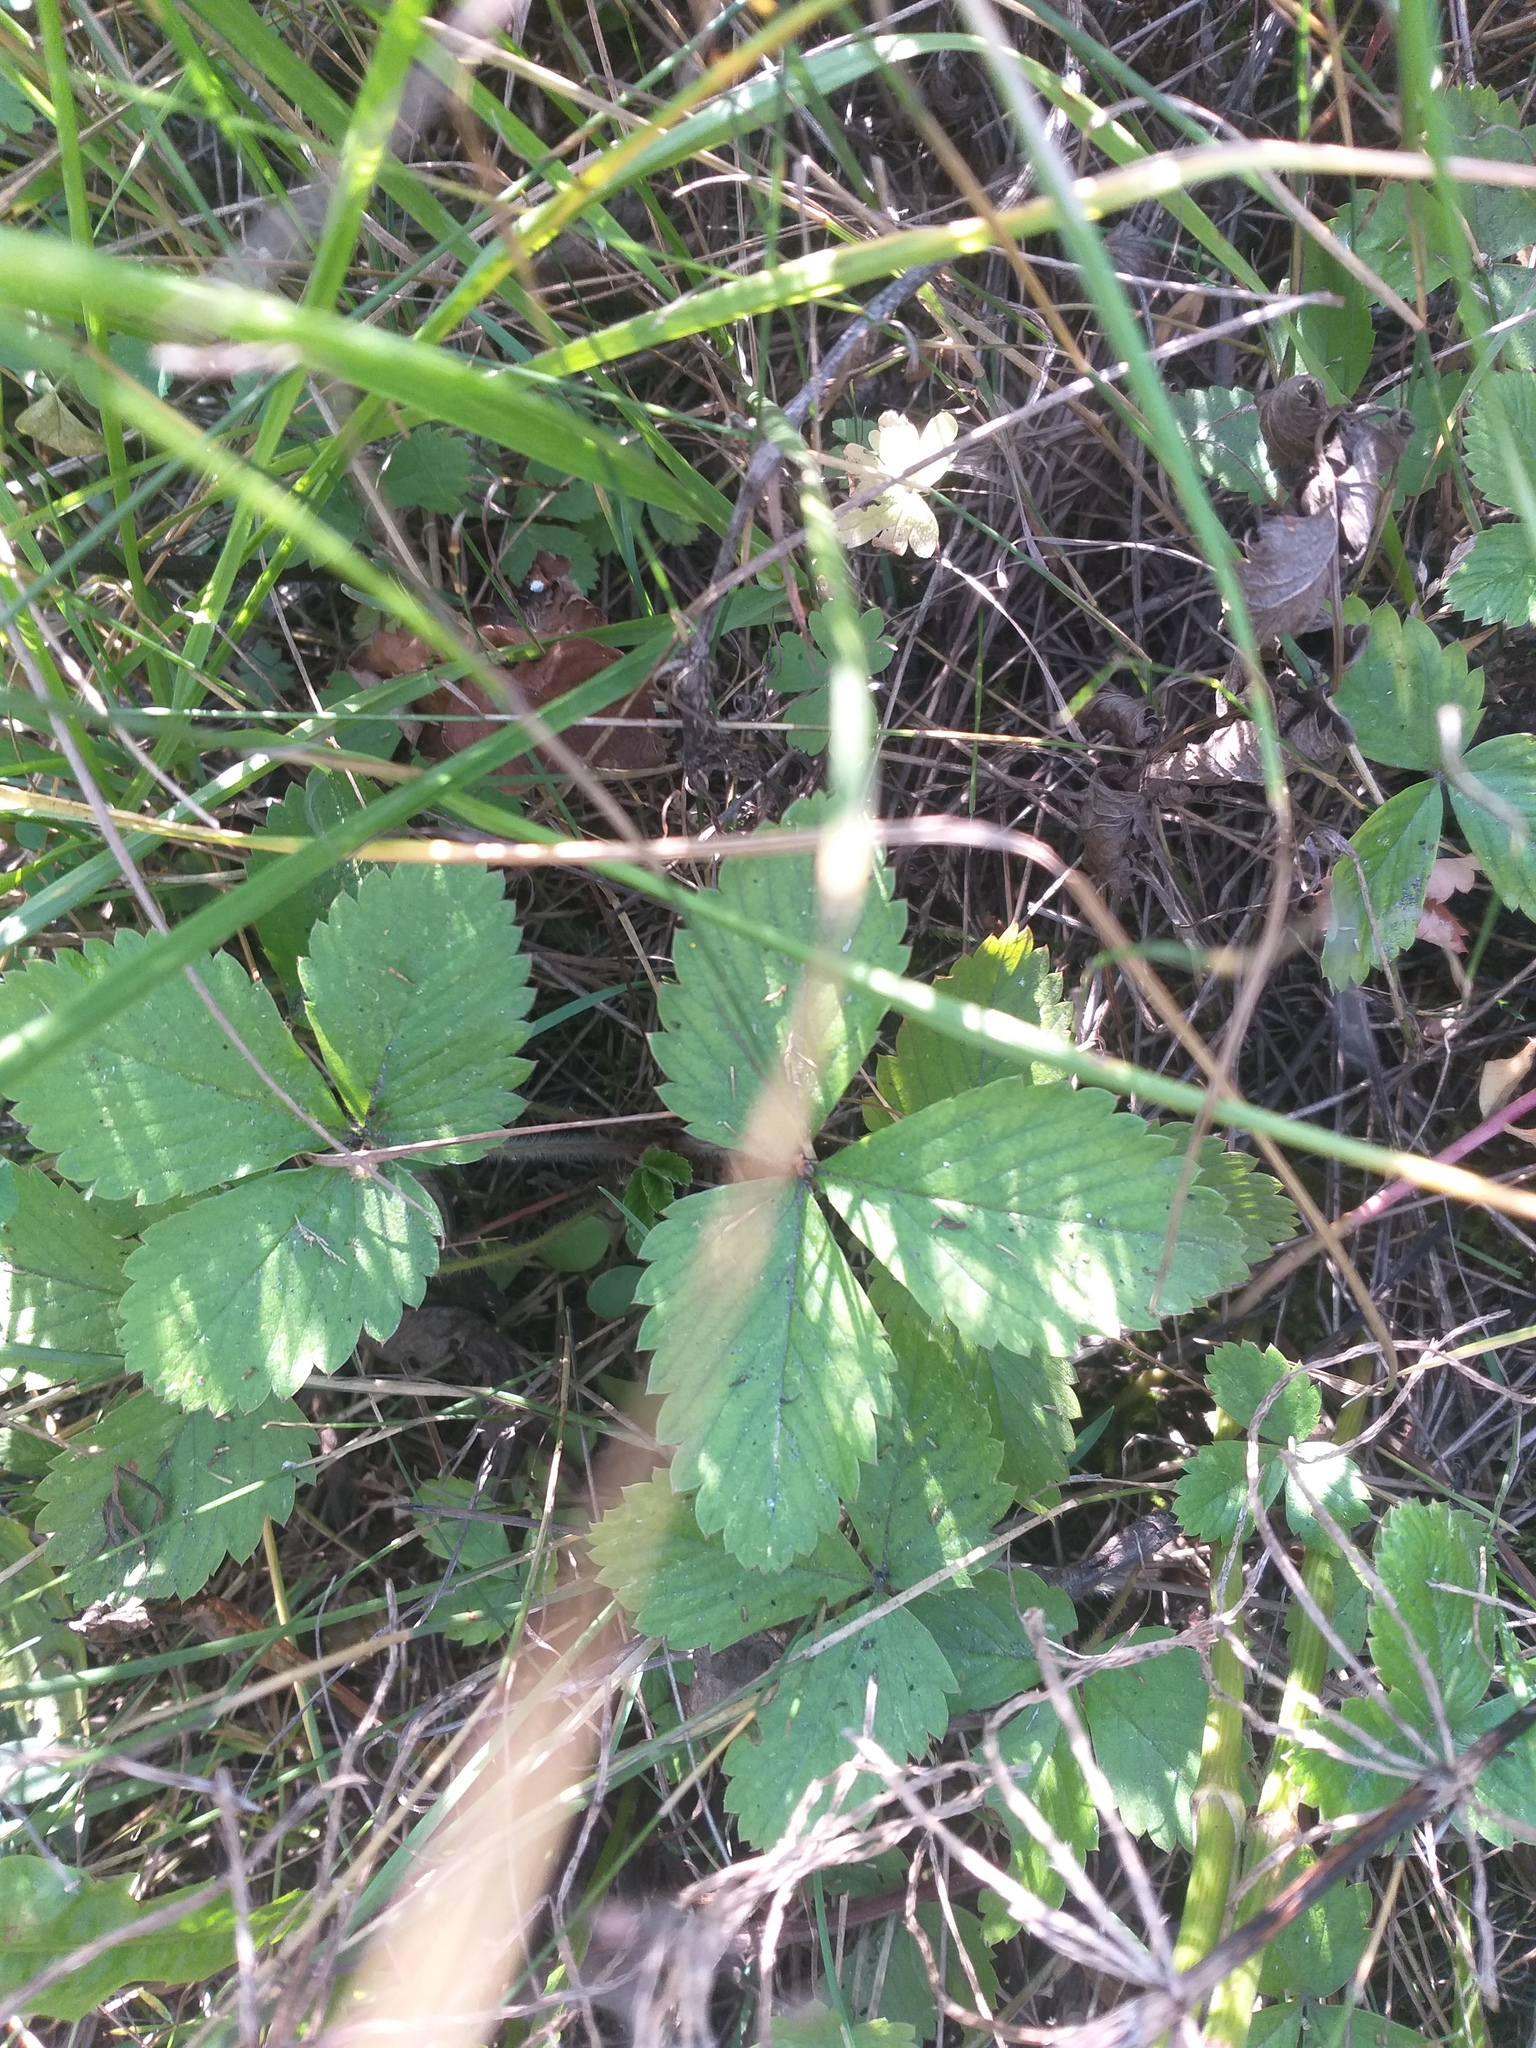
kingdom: Plantae
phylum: Tracheophyta
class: Magnoliopsida
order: Rosales
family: Rosaceae
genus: Fragaria
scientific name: Fragaria vesca
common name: Wild strawberry
